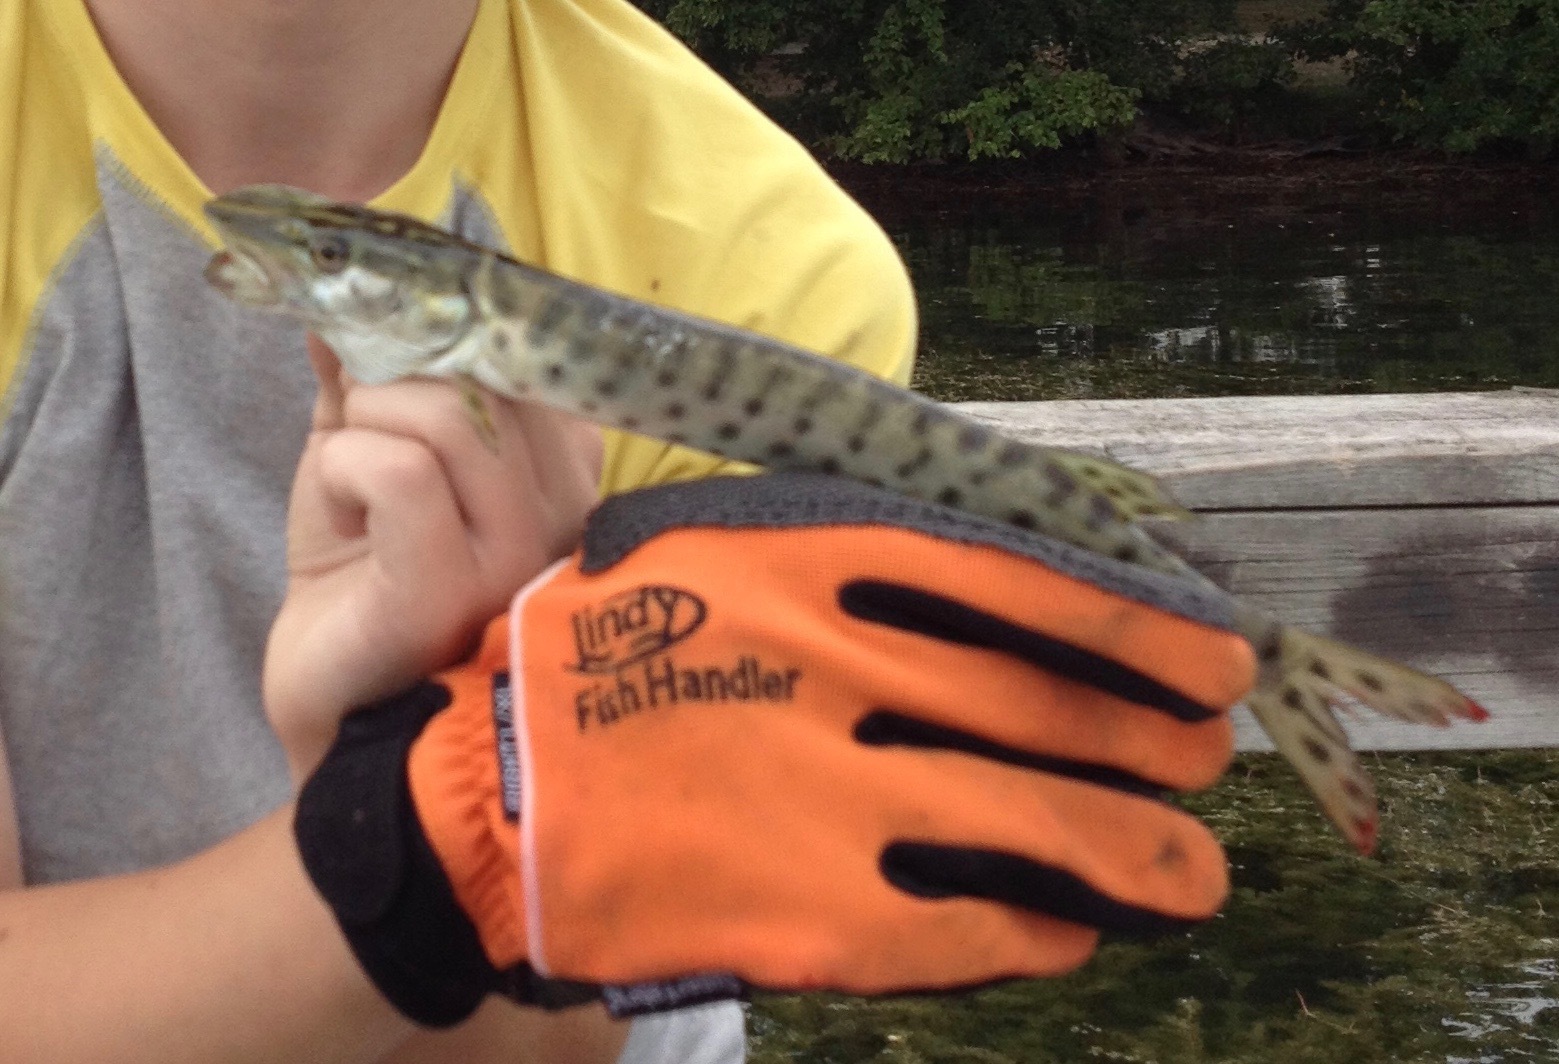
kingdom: Animalia
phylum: Chordata
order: Esociformes
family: Esocidae
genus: Esox
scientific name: Esox masquinongy
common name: Muskellunge
